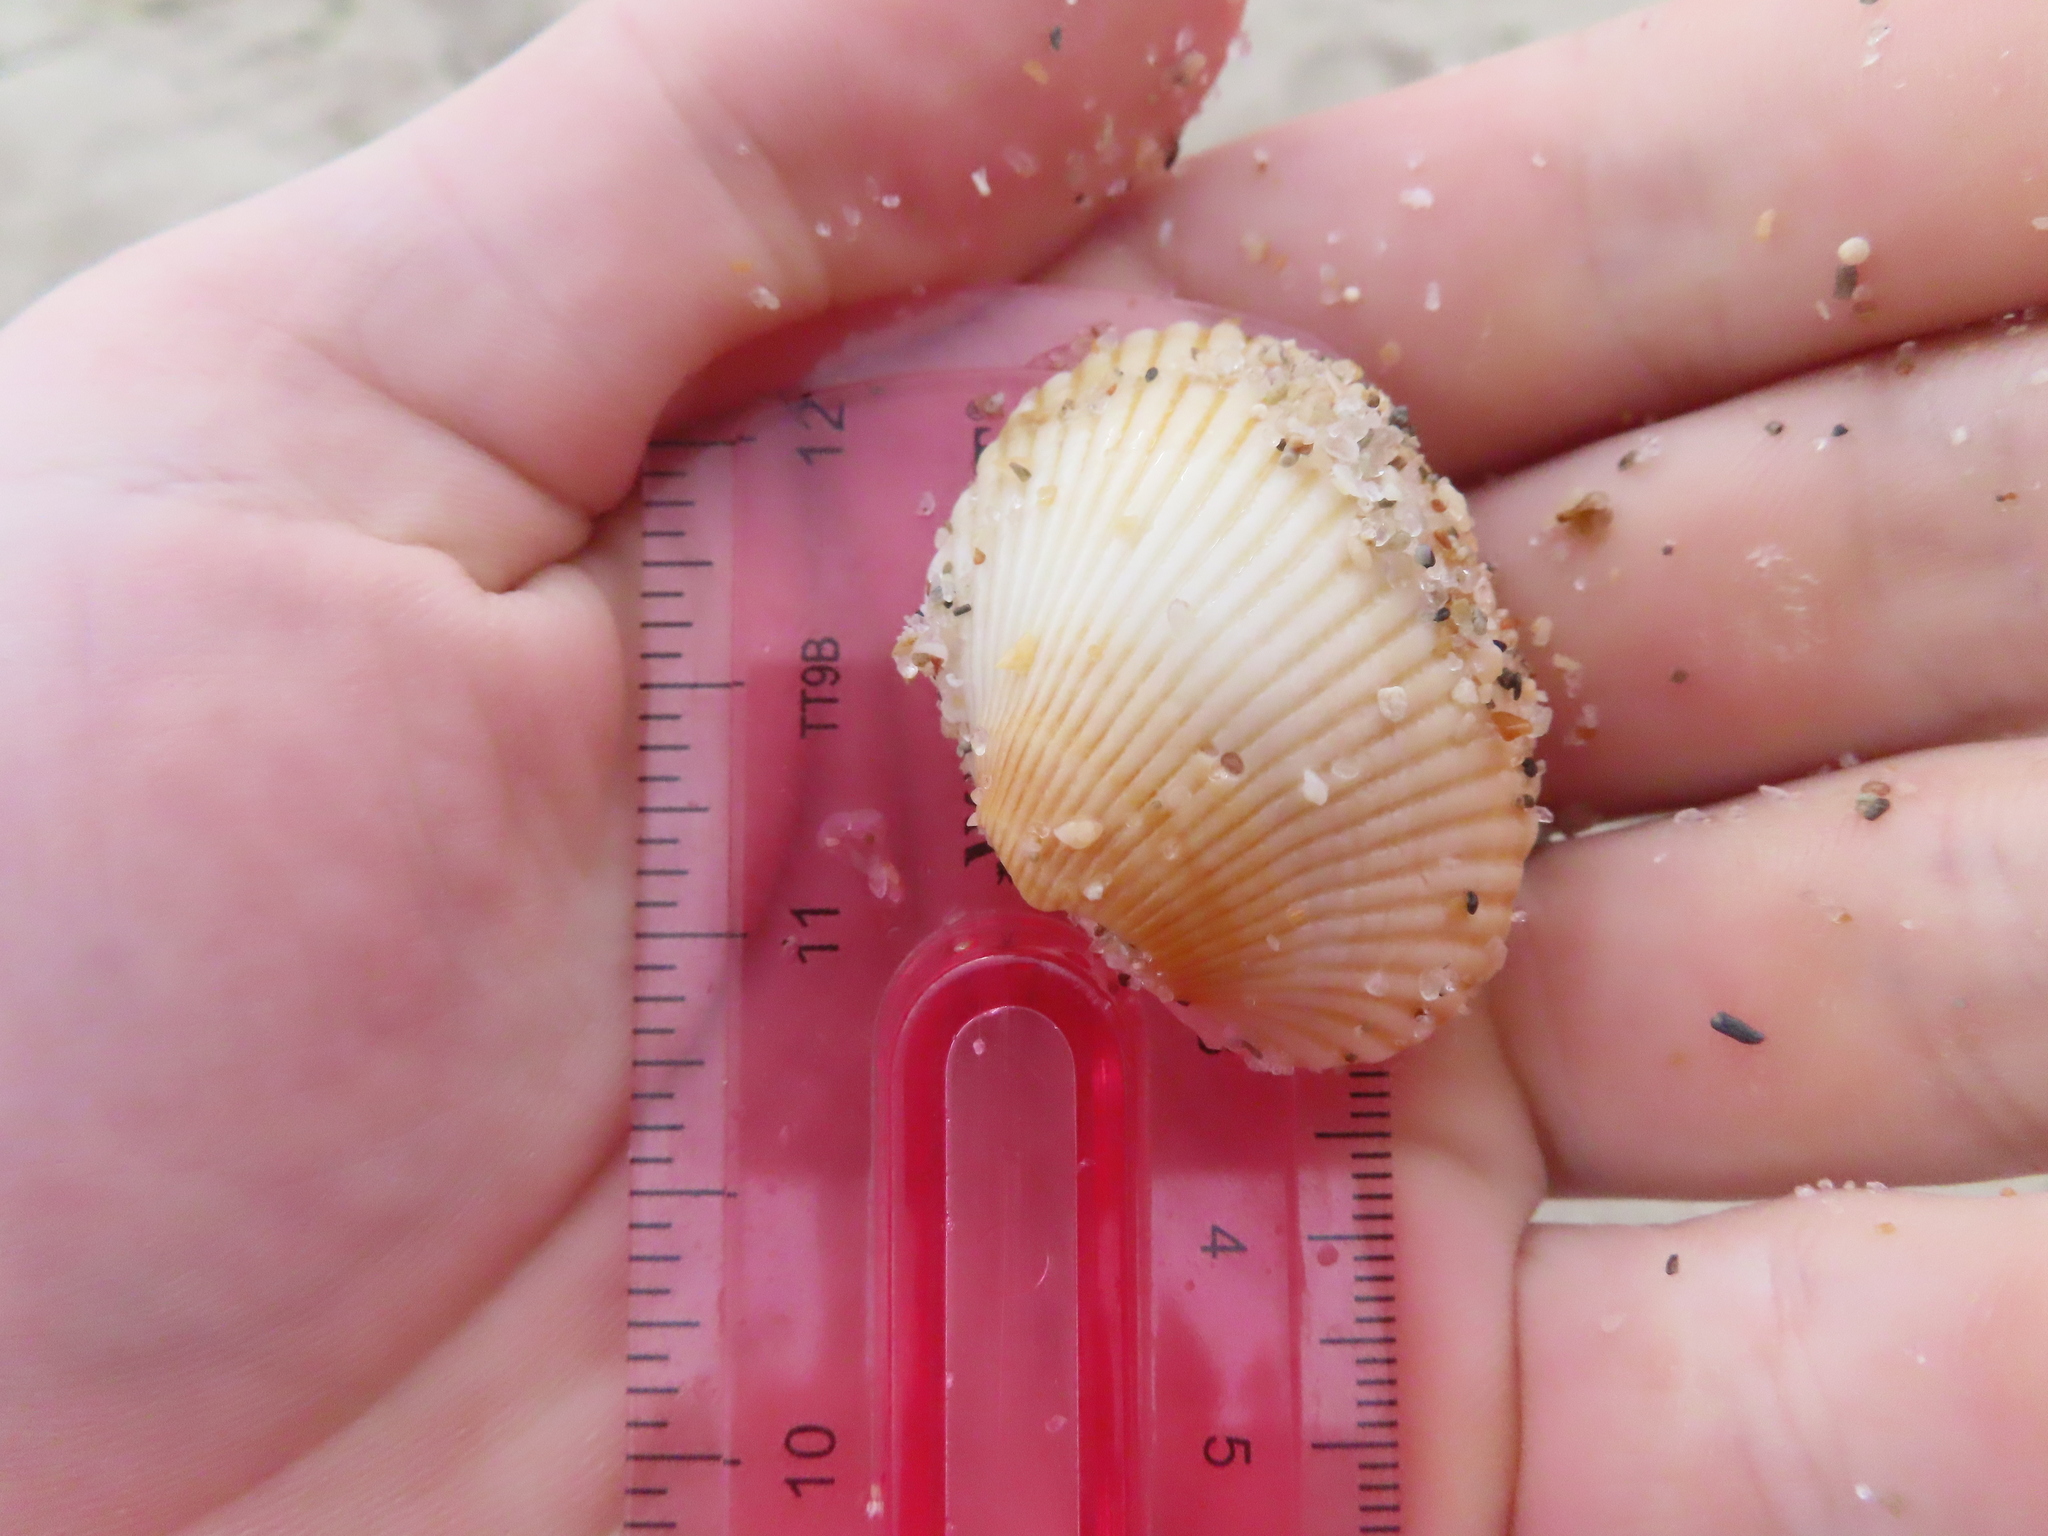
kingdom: Animalia
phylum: Mollusca
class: Bivalvia
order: Cardiida
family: Cardiidae
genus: Dinocardium
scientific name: Dinocardium robustum
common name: Atlantic giant cockle
